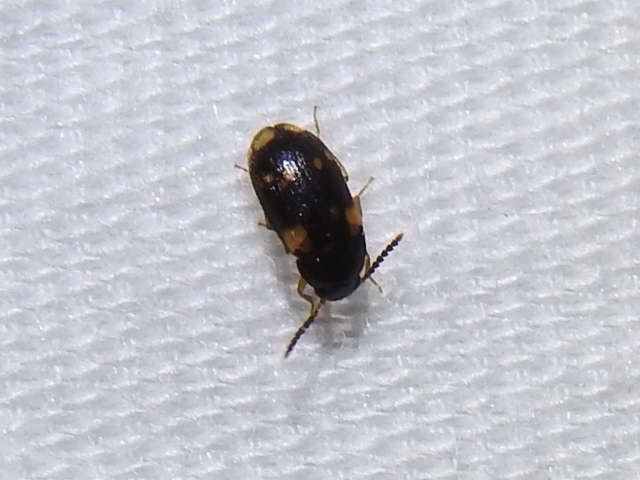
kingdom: Animalia
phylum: Arthropoda
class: Insecta
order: Coleoptera
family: Mycetophagidae
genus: Mycetophagus
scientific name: Mycetophagus serrulatus
